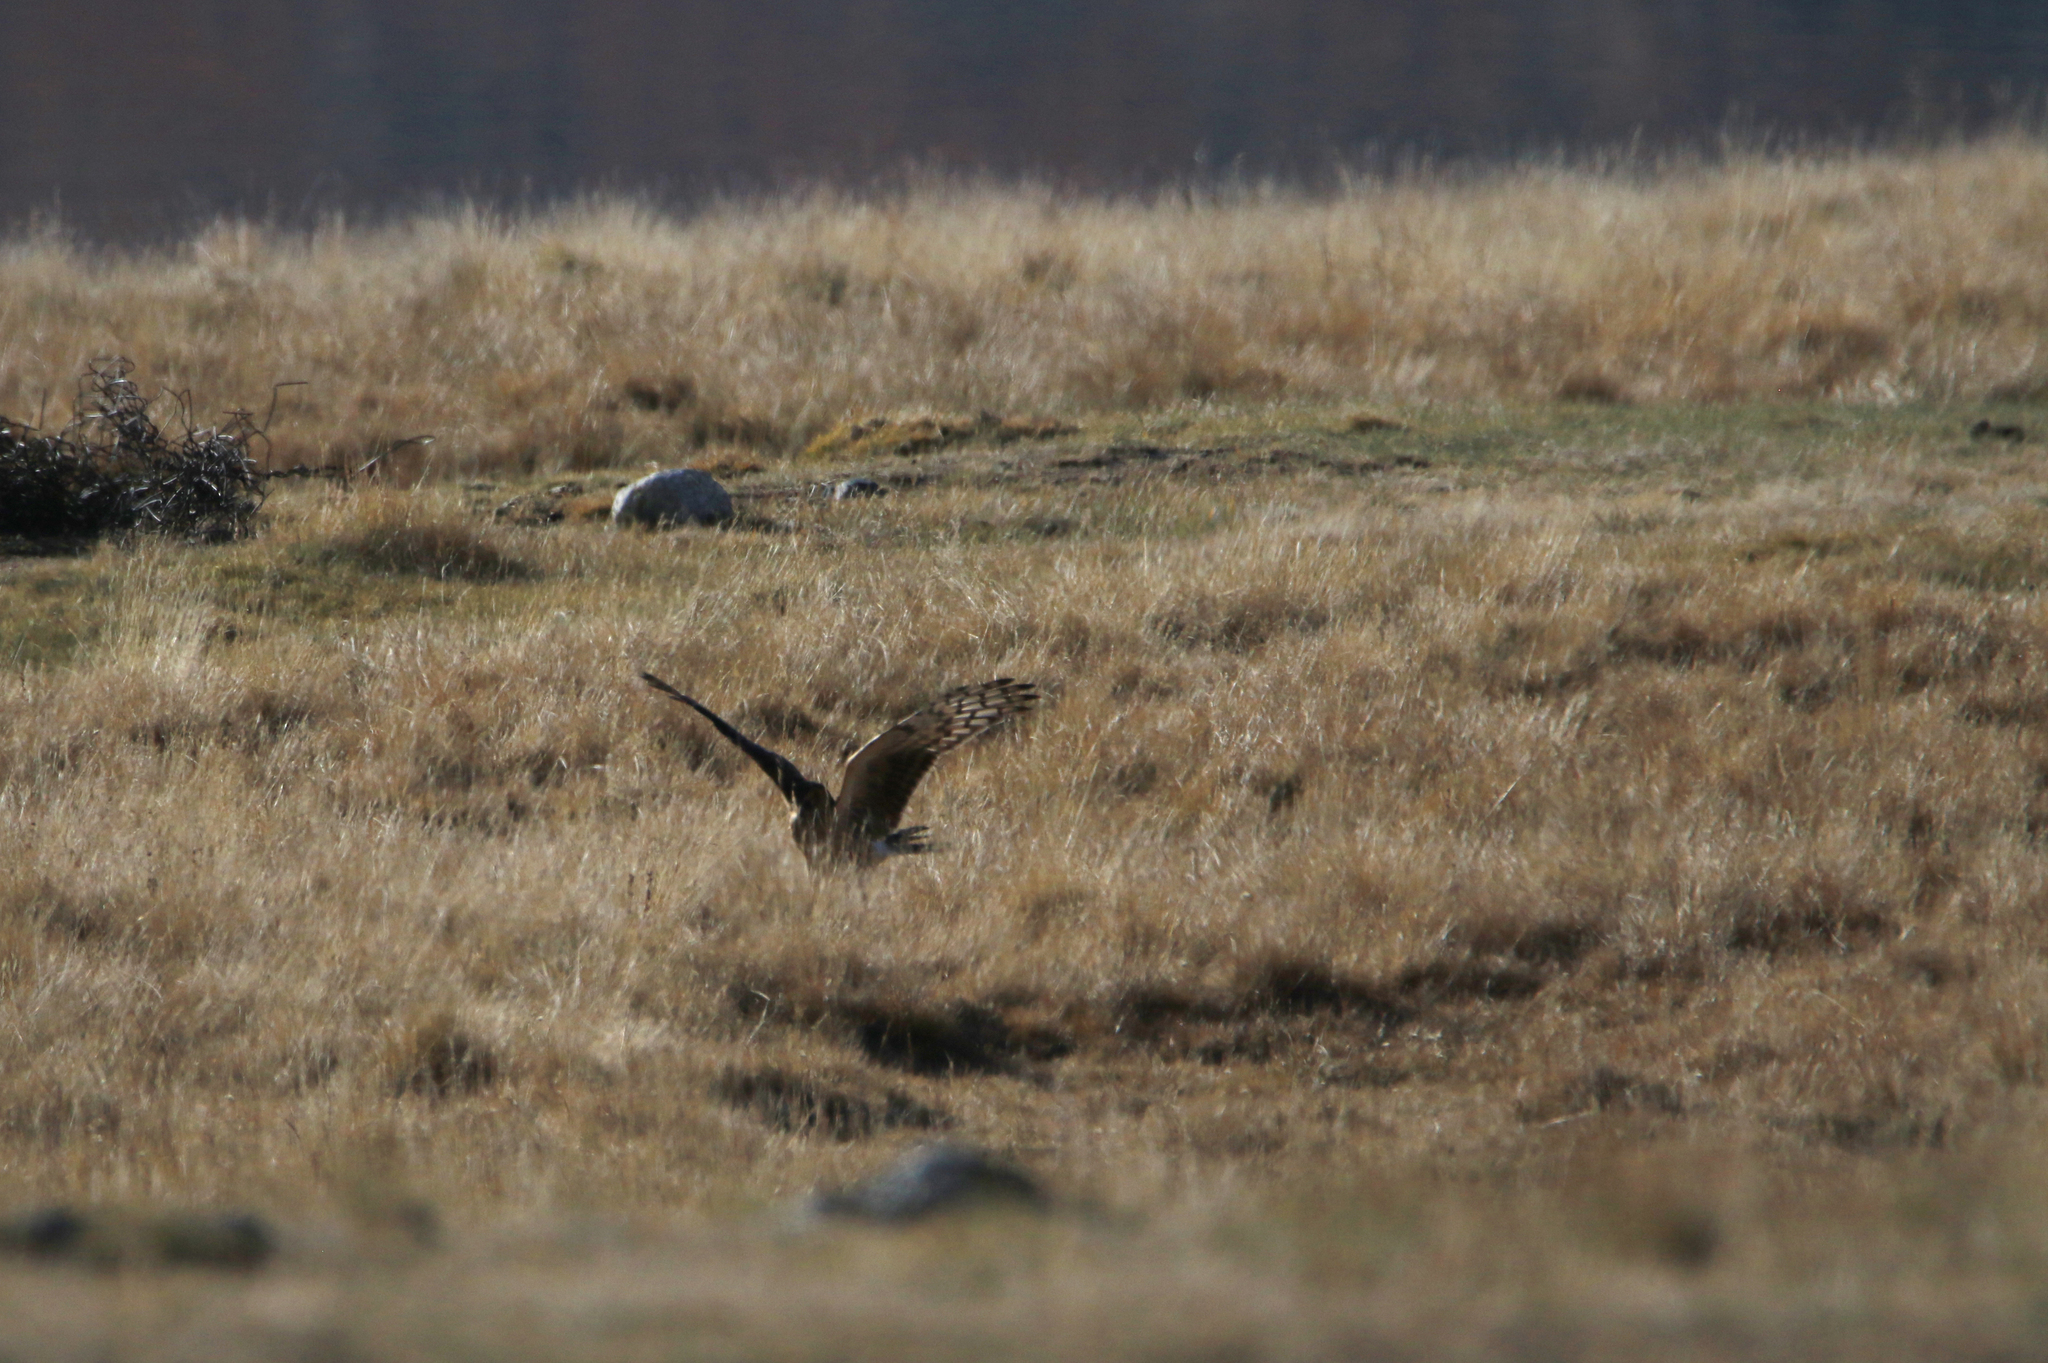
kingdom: Animalia
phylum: Chordata
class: Aves
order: Accipitriformes
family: Accipitridae
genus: Circus
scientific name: Circus cyaneus
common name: Hen harrier
